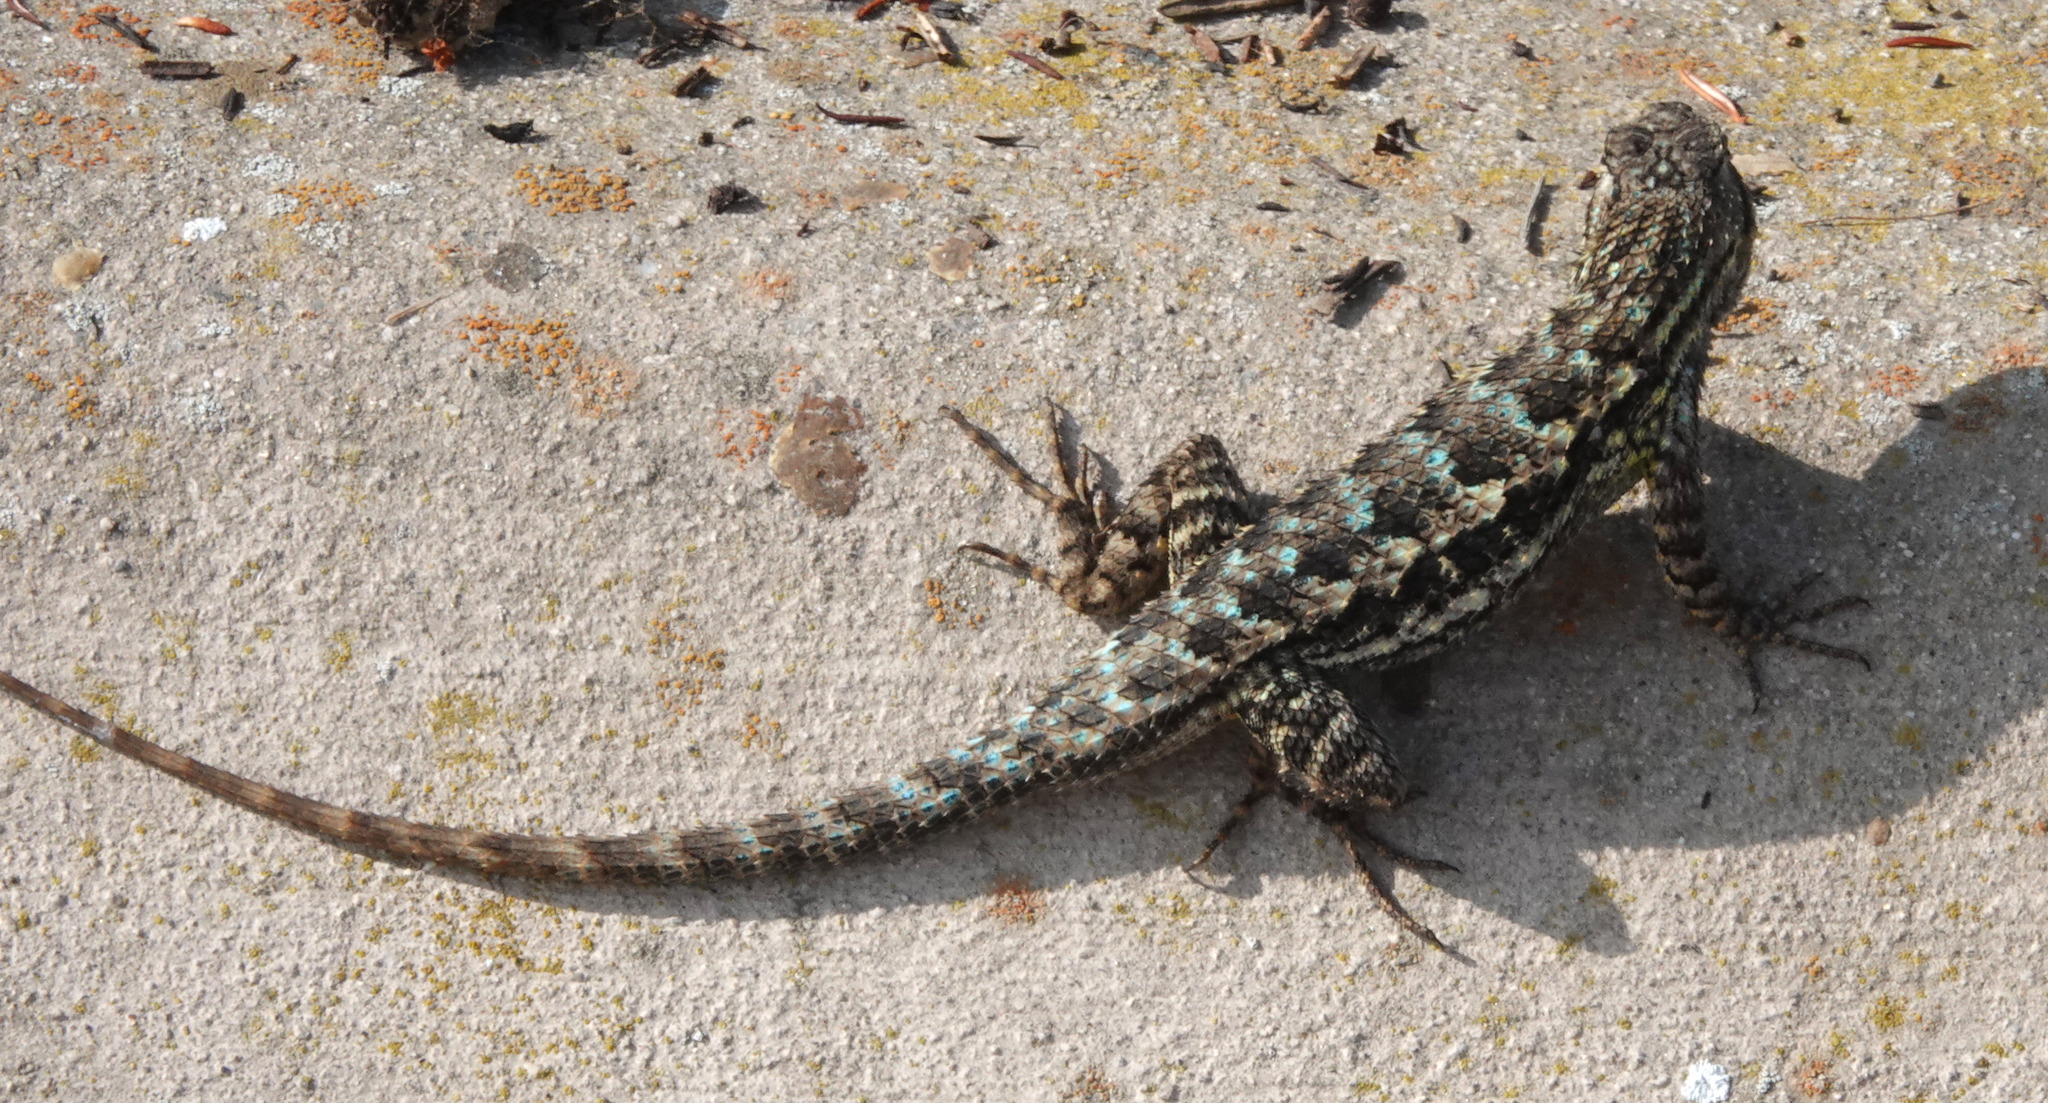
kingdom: Animalia
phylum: Chordata
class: Squamata
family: Phrynosomatidae
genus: Sceloporus
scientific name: Sceloporus occidentalis
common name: Western fence lizard
